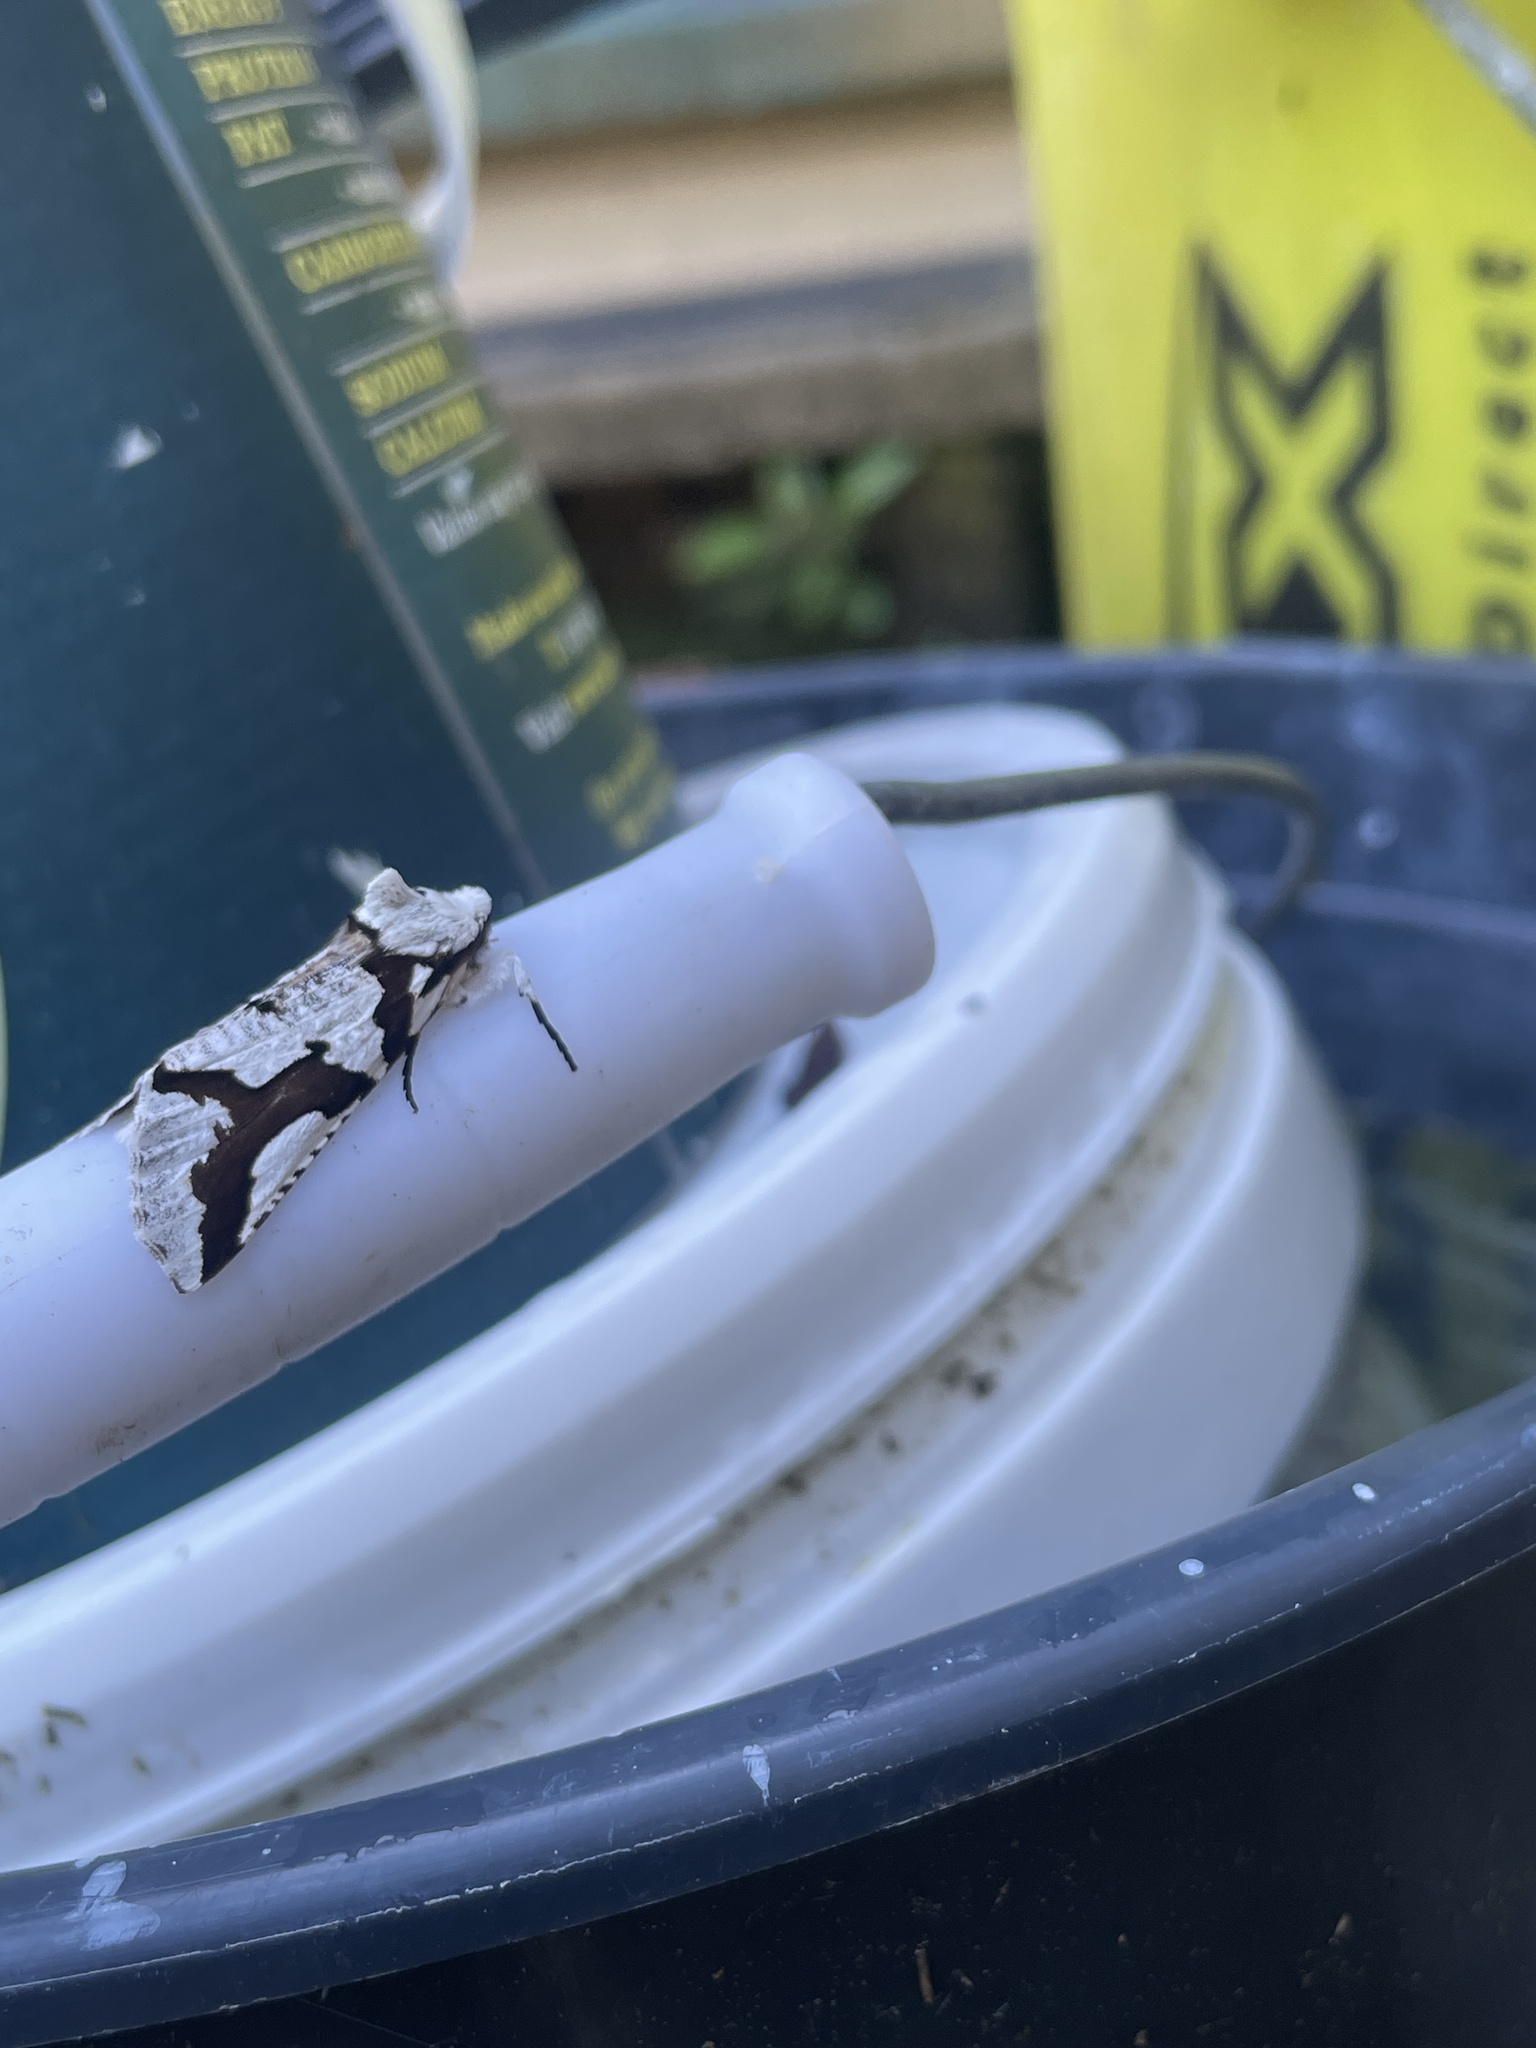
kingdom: Animalia
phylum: Arthropoda
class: Insecta
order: Lepidoptera
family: Geometridae
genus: Declana
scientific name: Declana
